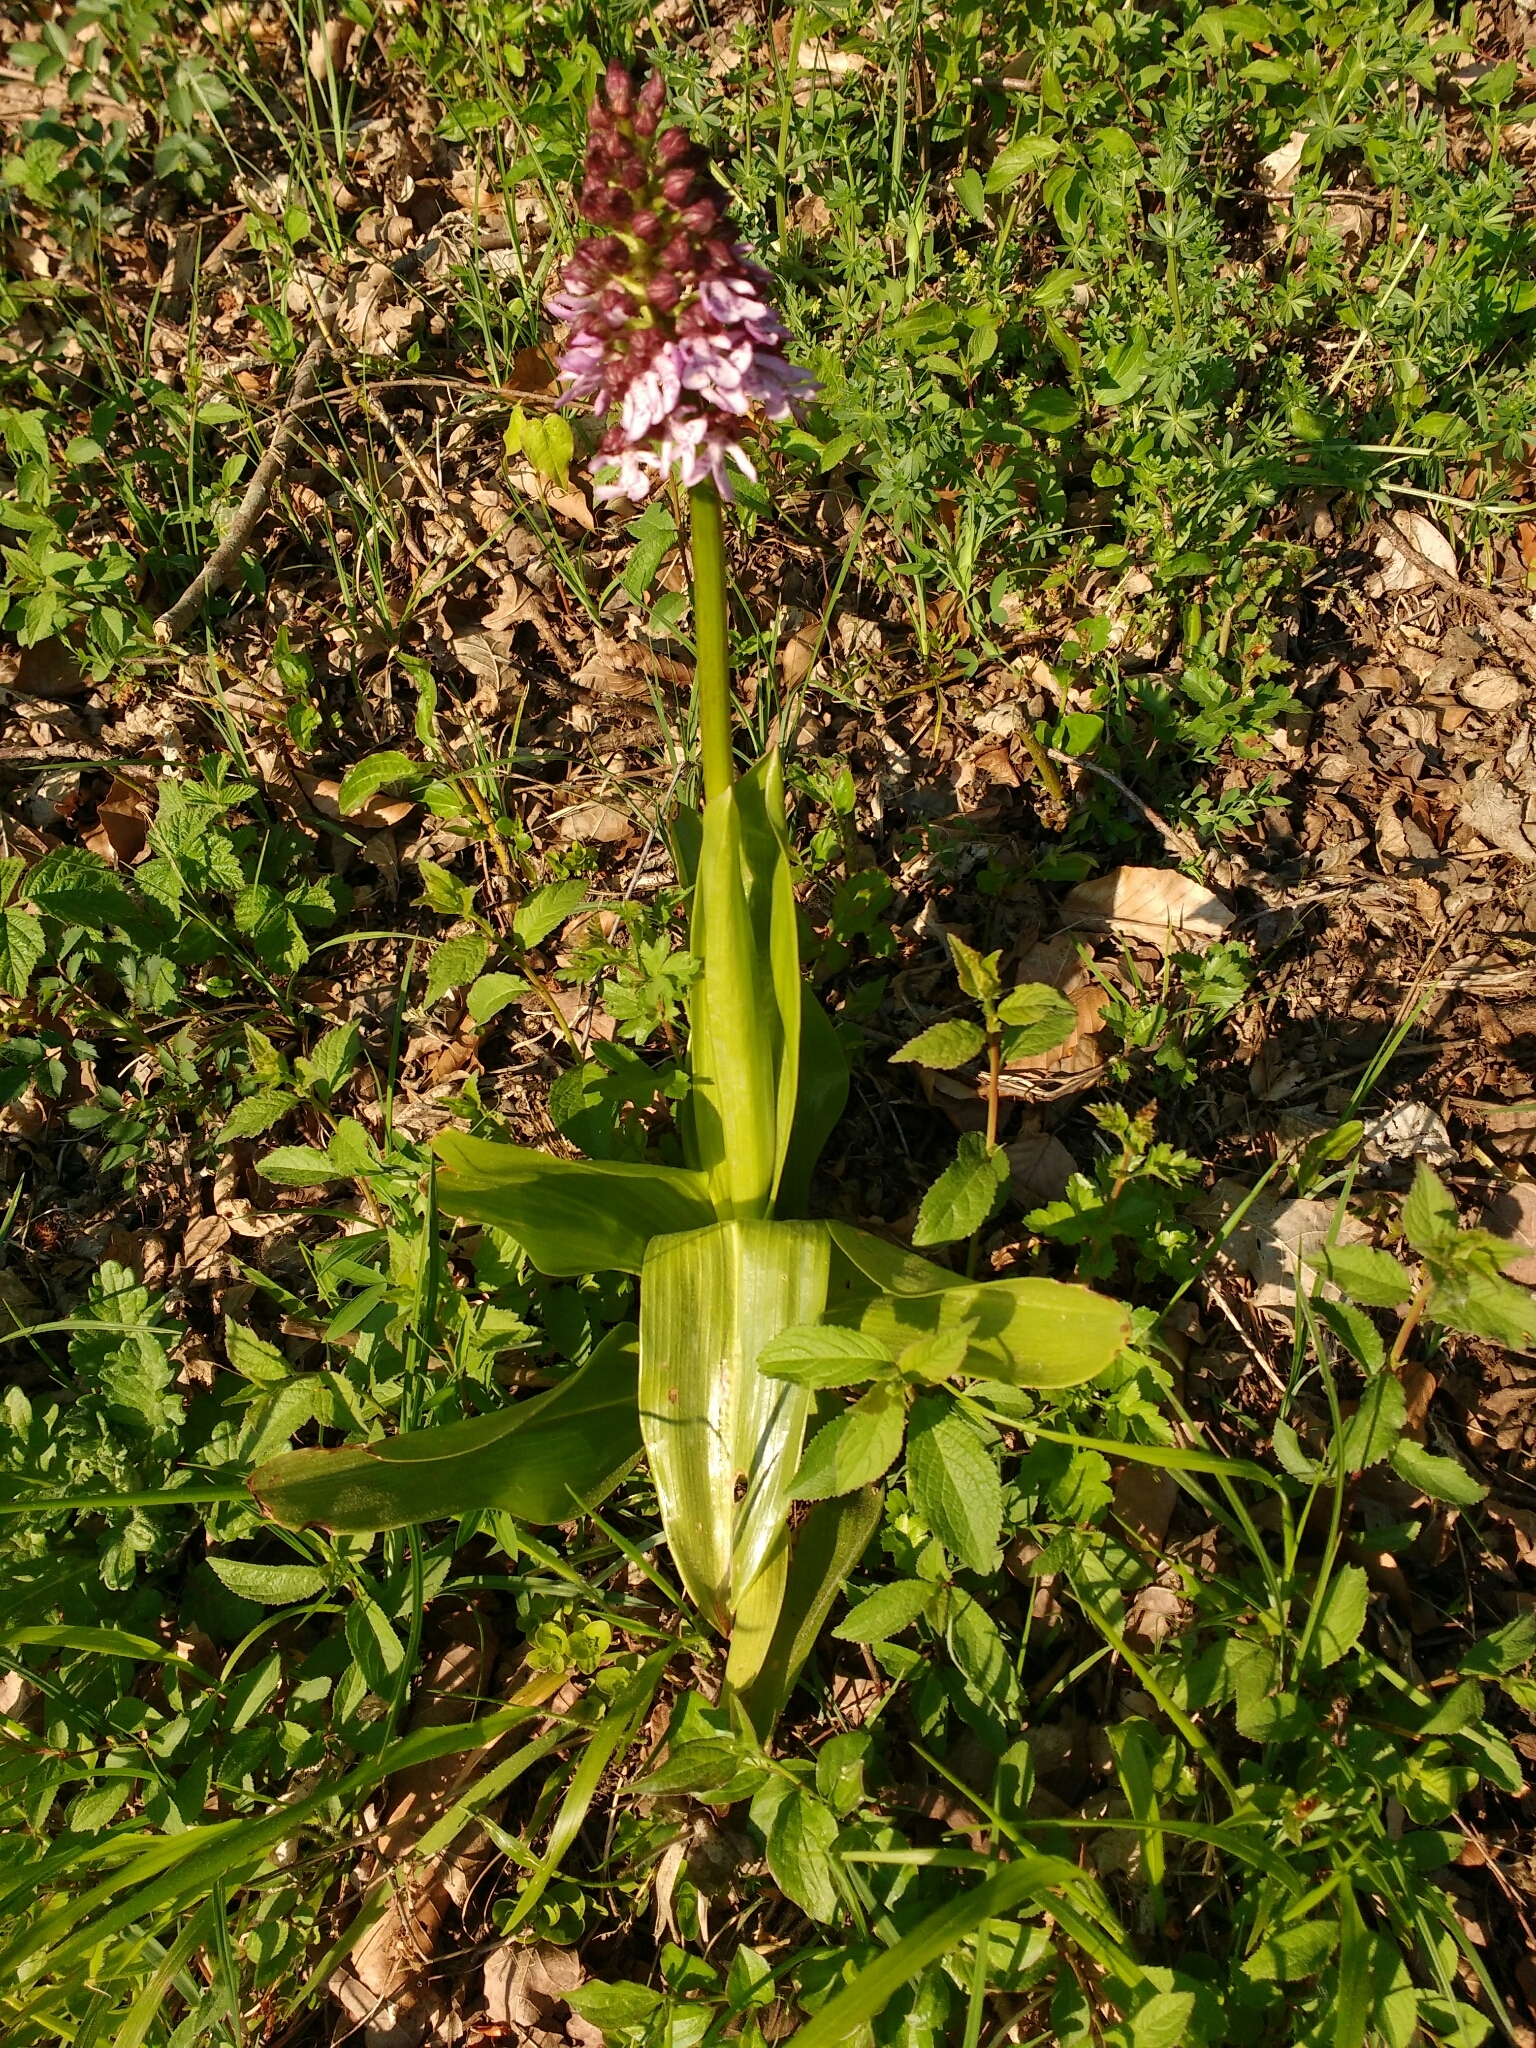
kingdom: Plantae
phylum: Tracheophyta
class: Liliopsida
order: Asparagales
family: Orchidaceae
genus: Orchis
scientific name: Orchis purpurea
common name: Lady orchid
